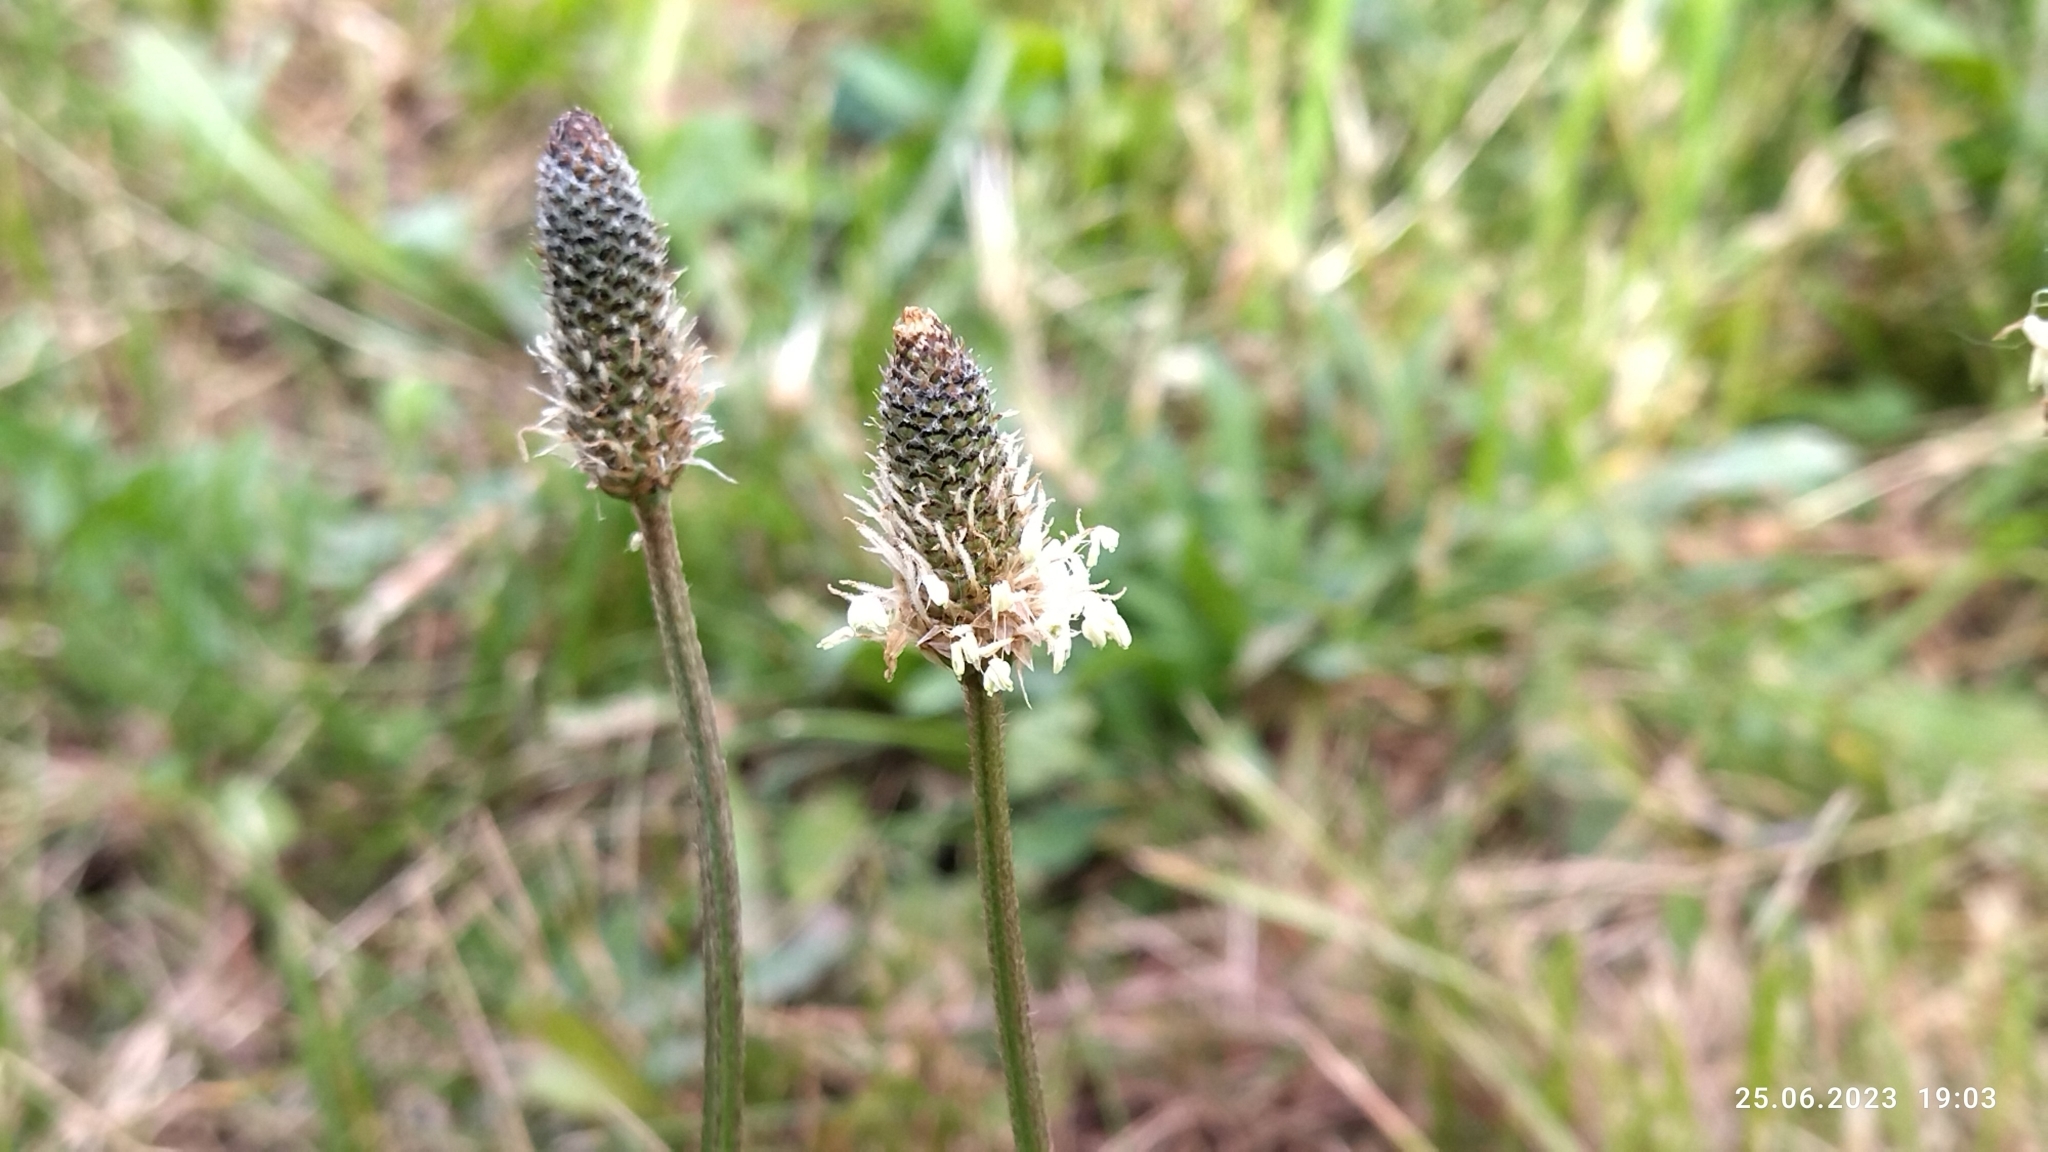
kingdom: Plantae
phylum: Tracheophyta
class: Magnoliopsida
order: Lamiales
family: Plantaginaceae
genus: Plantago
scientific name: Plantago lanceolata
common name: Ribwort plantain
